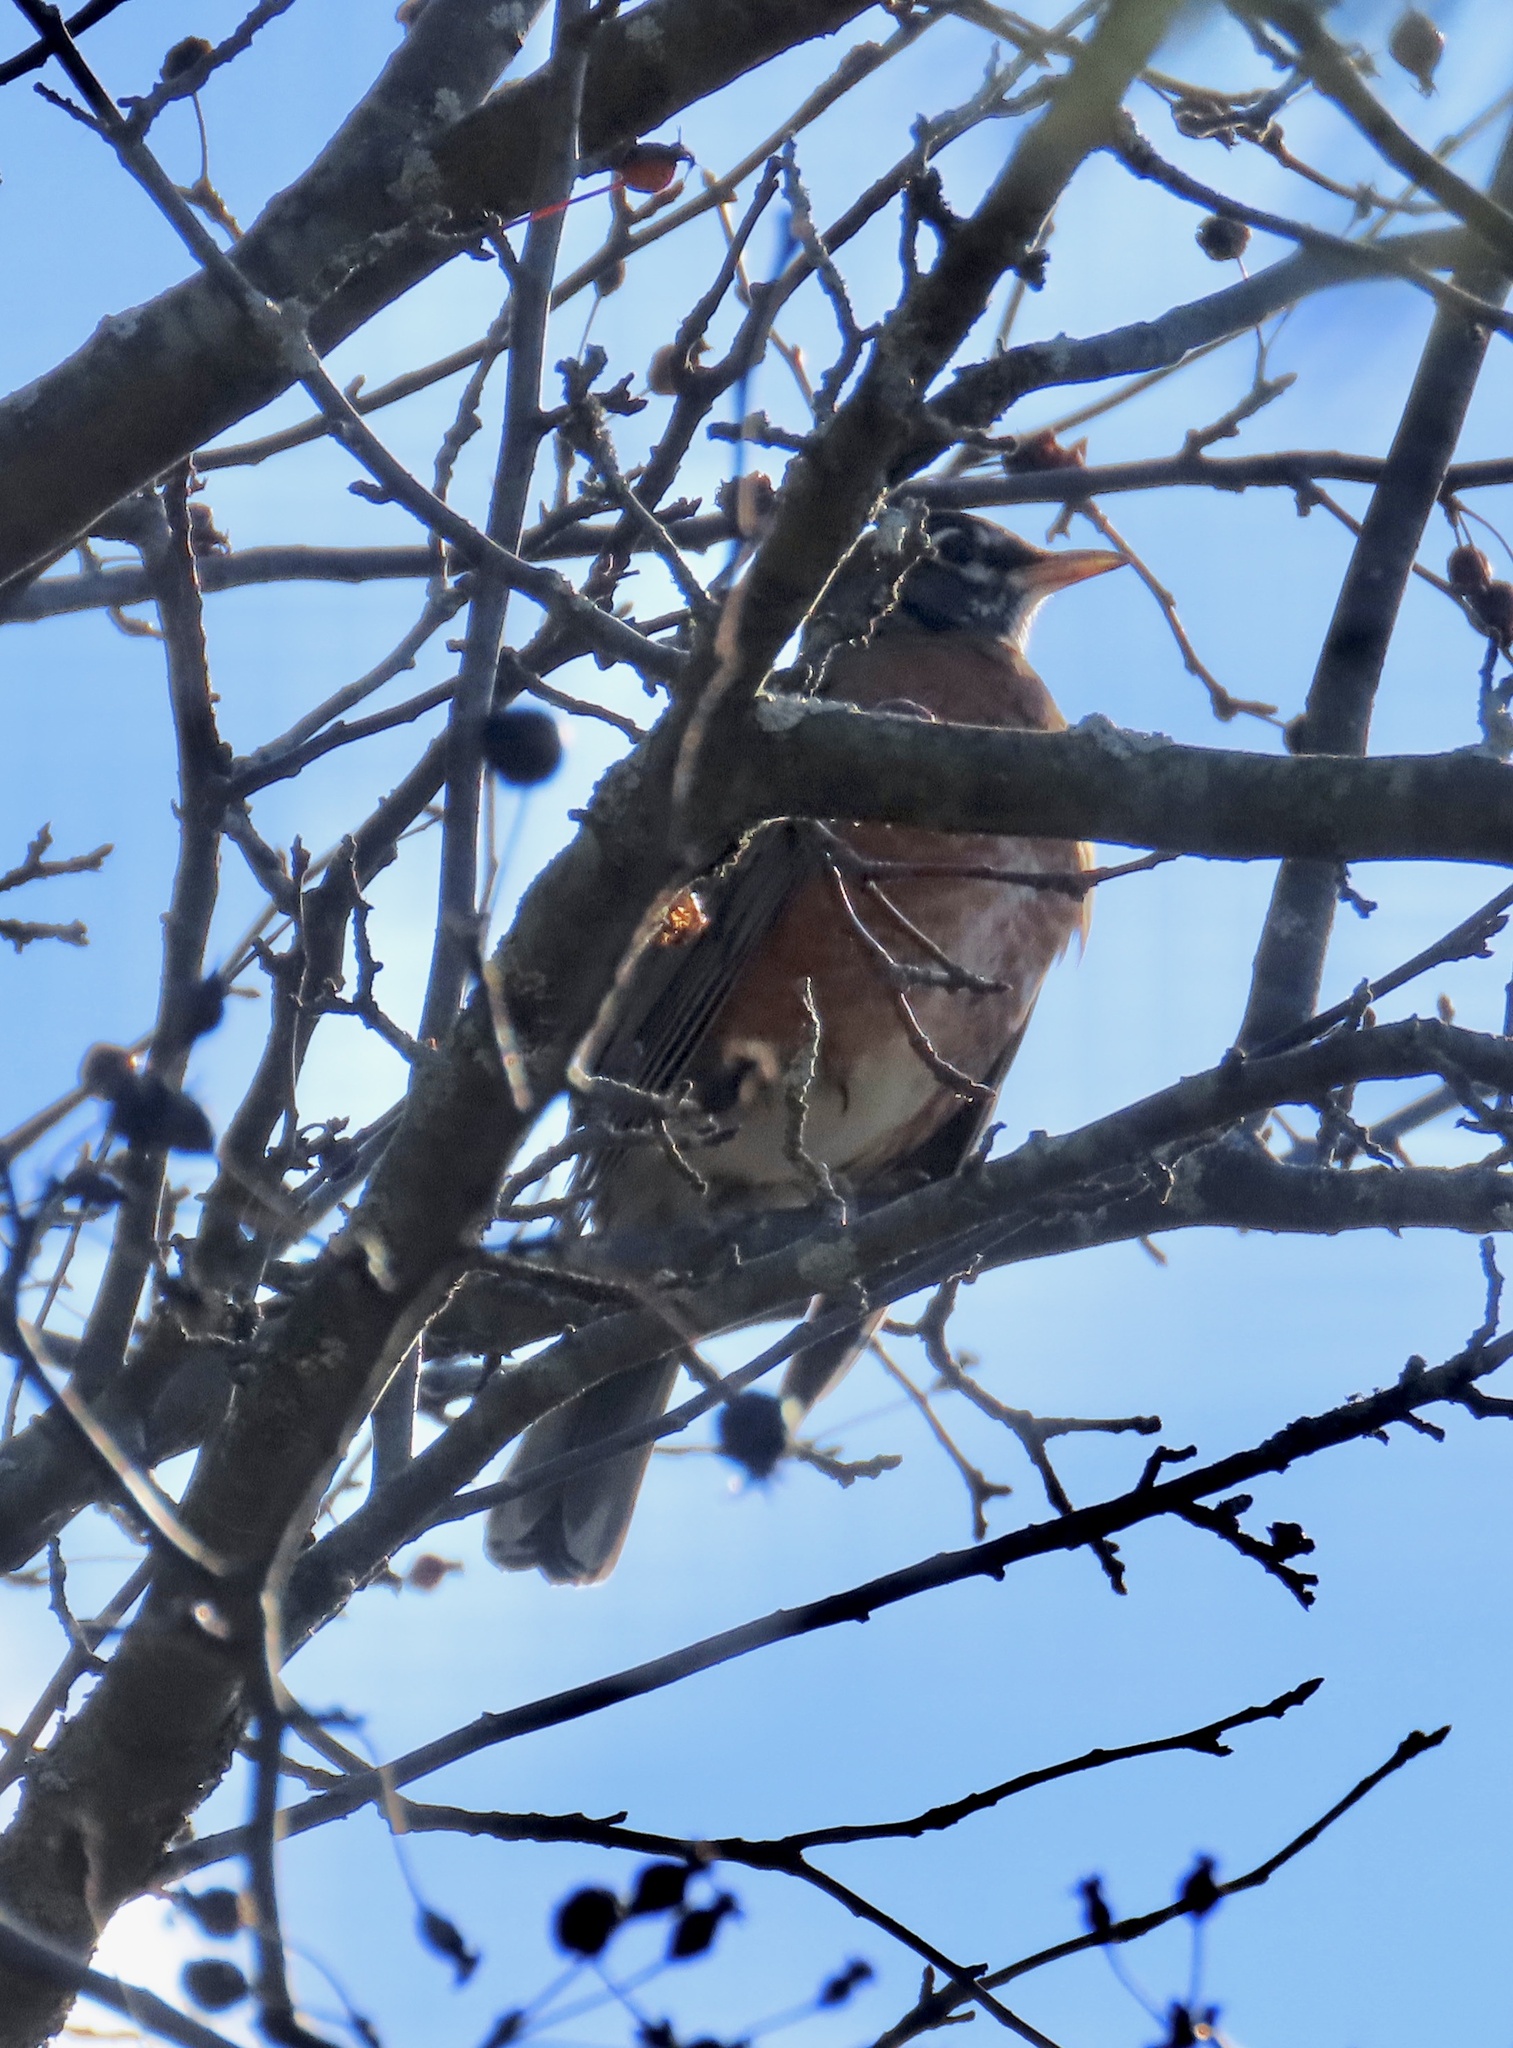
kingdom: Animalia
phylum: Chordata
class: Aves
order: Passeriformes
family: Turdidae
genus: Turdus
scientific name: Turdus migratorius
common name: American robin
